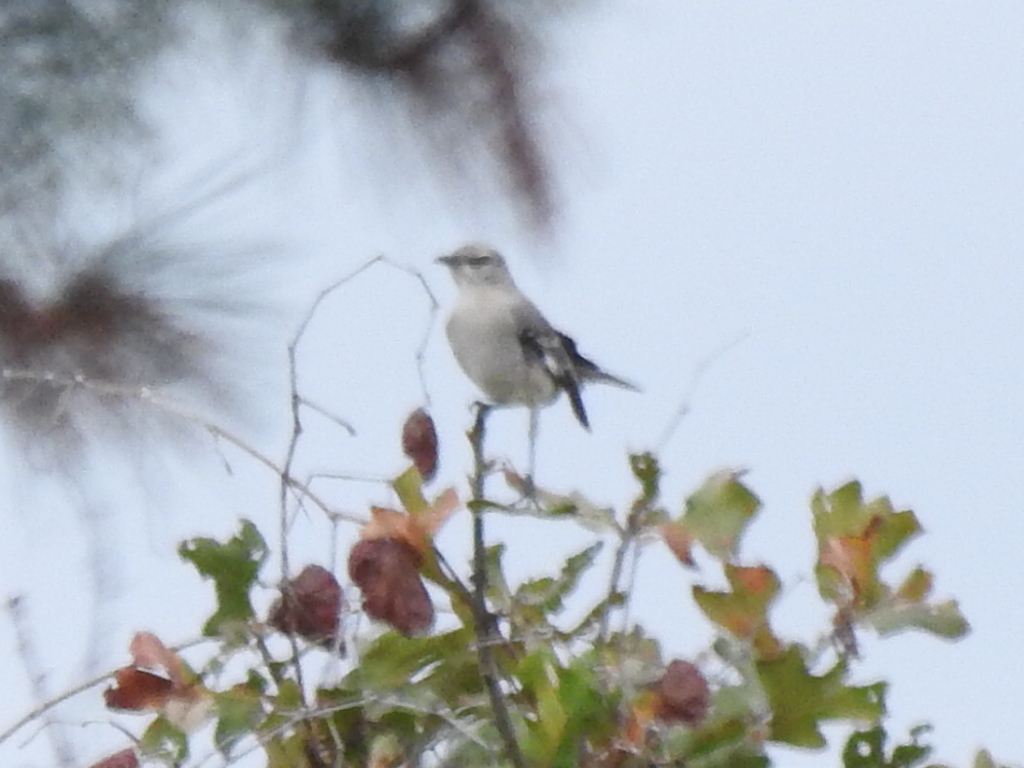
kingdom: Animalia
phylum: Chordata
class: Aves
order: Passeriformes
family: Mimidae
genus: Mimus
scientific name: Mimus polyglottos
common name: Northern mockingbird
